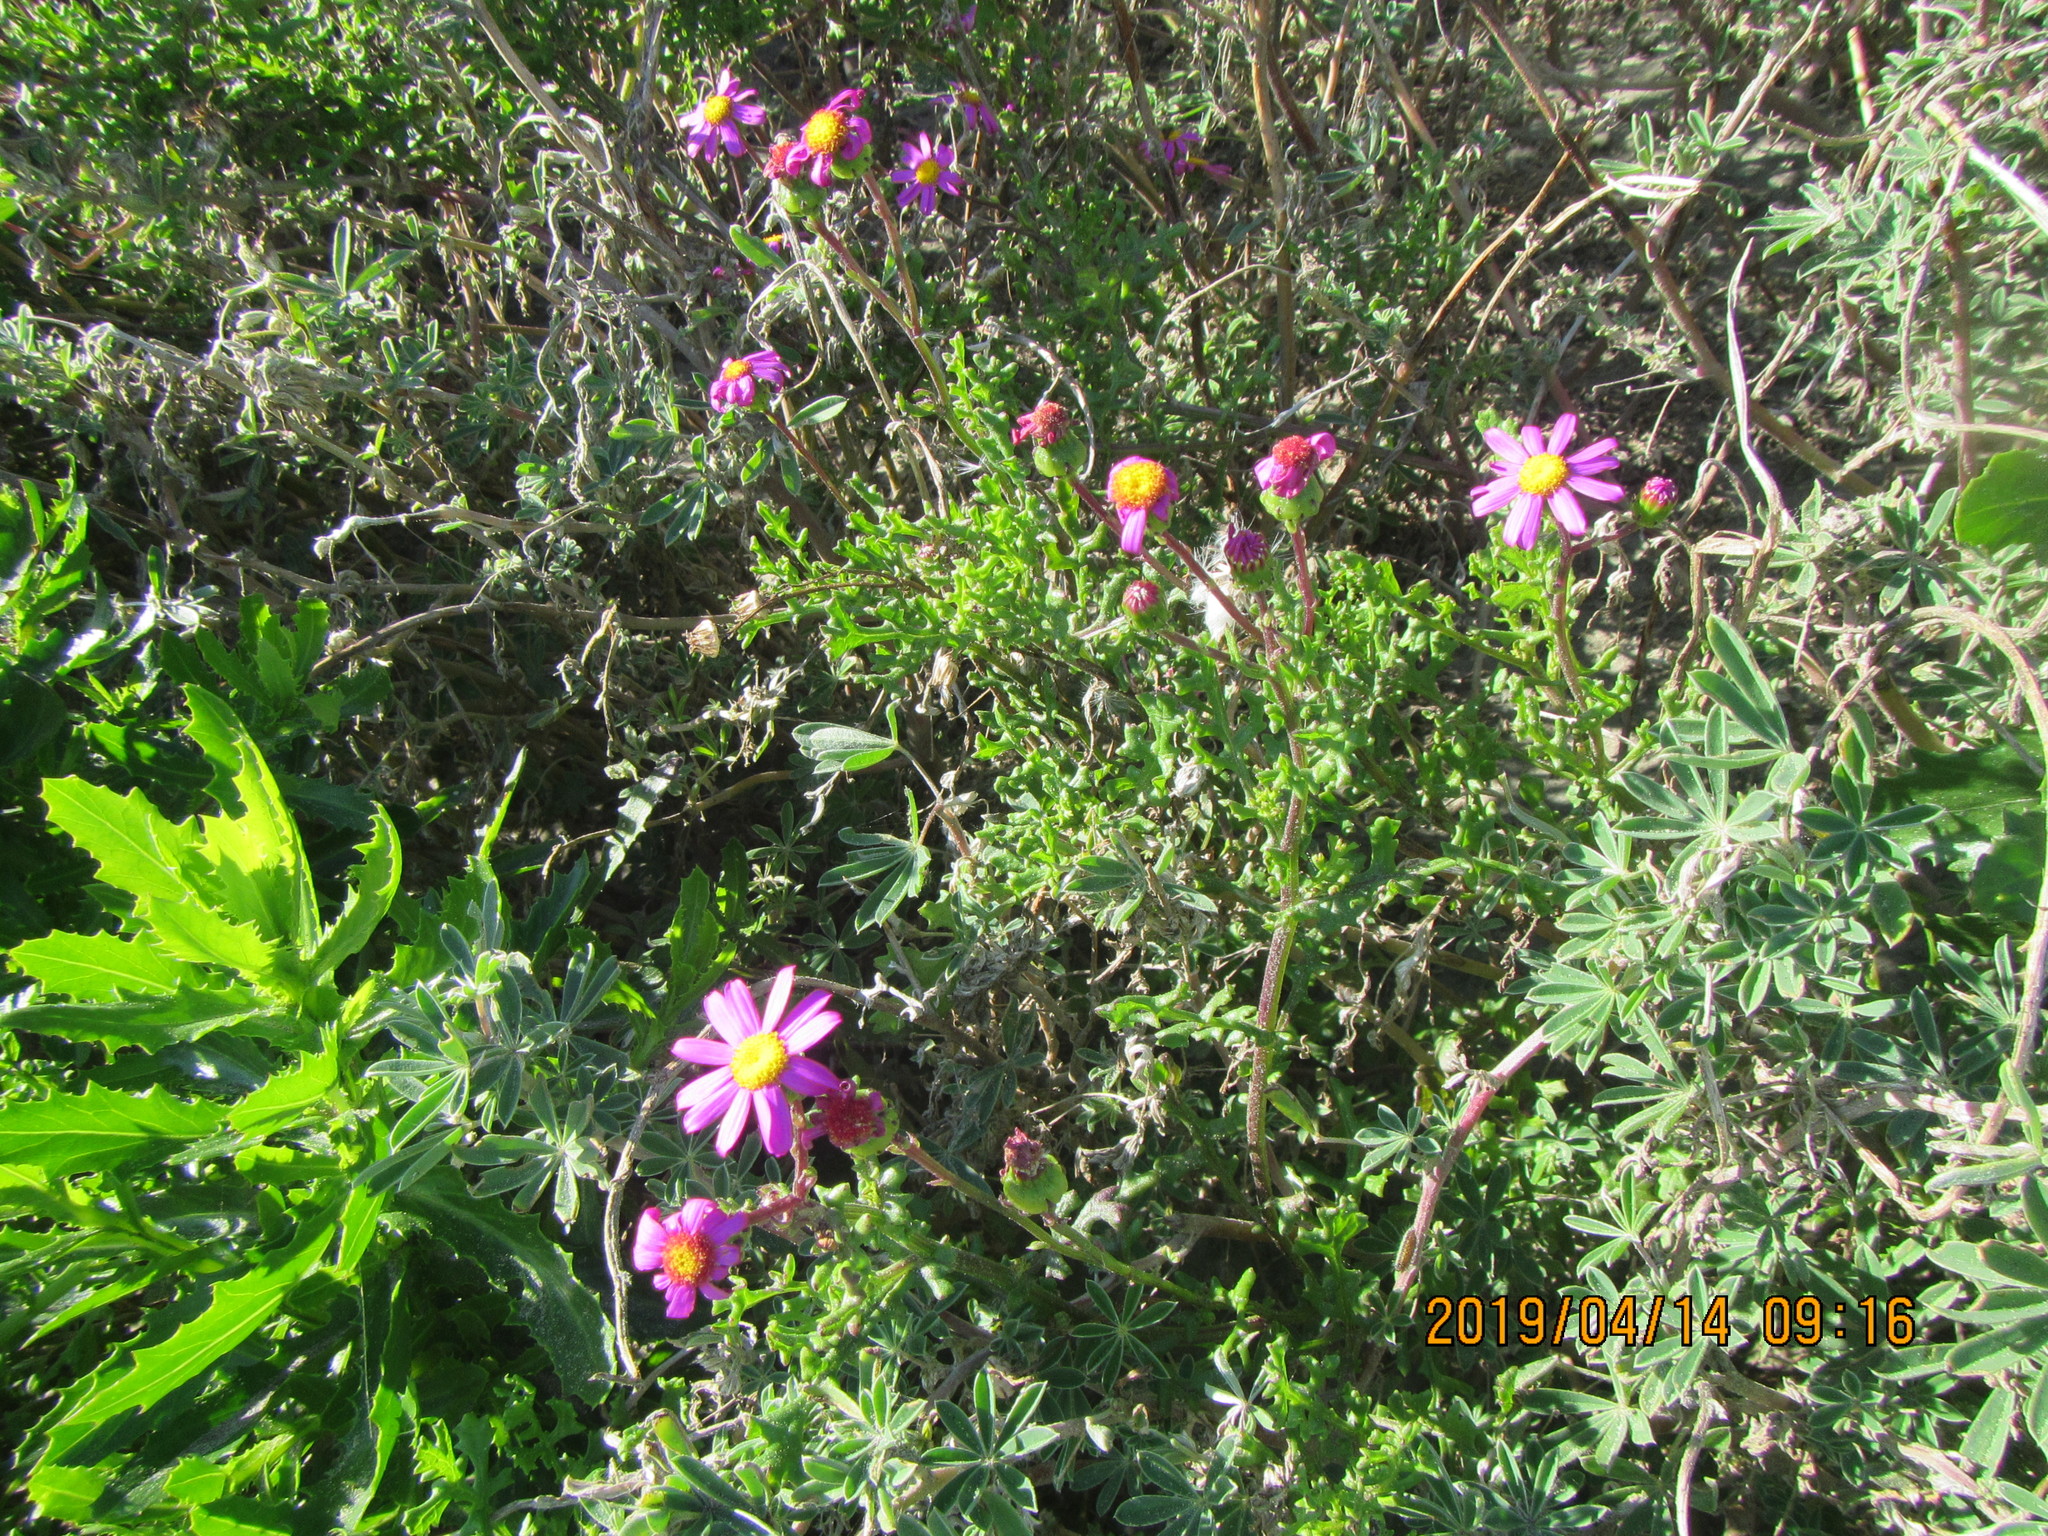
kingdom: Plantae
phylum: Tracheophyta
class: Magnoliopsida
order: Asterales
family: Asteraceae
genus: Senecio
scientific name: Senecio elegans
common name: Purple groundsel
